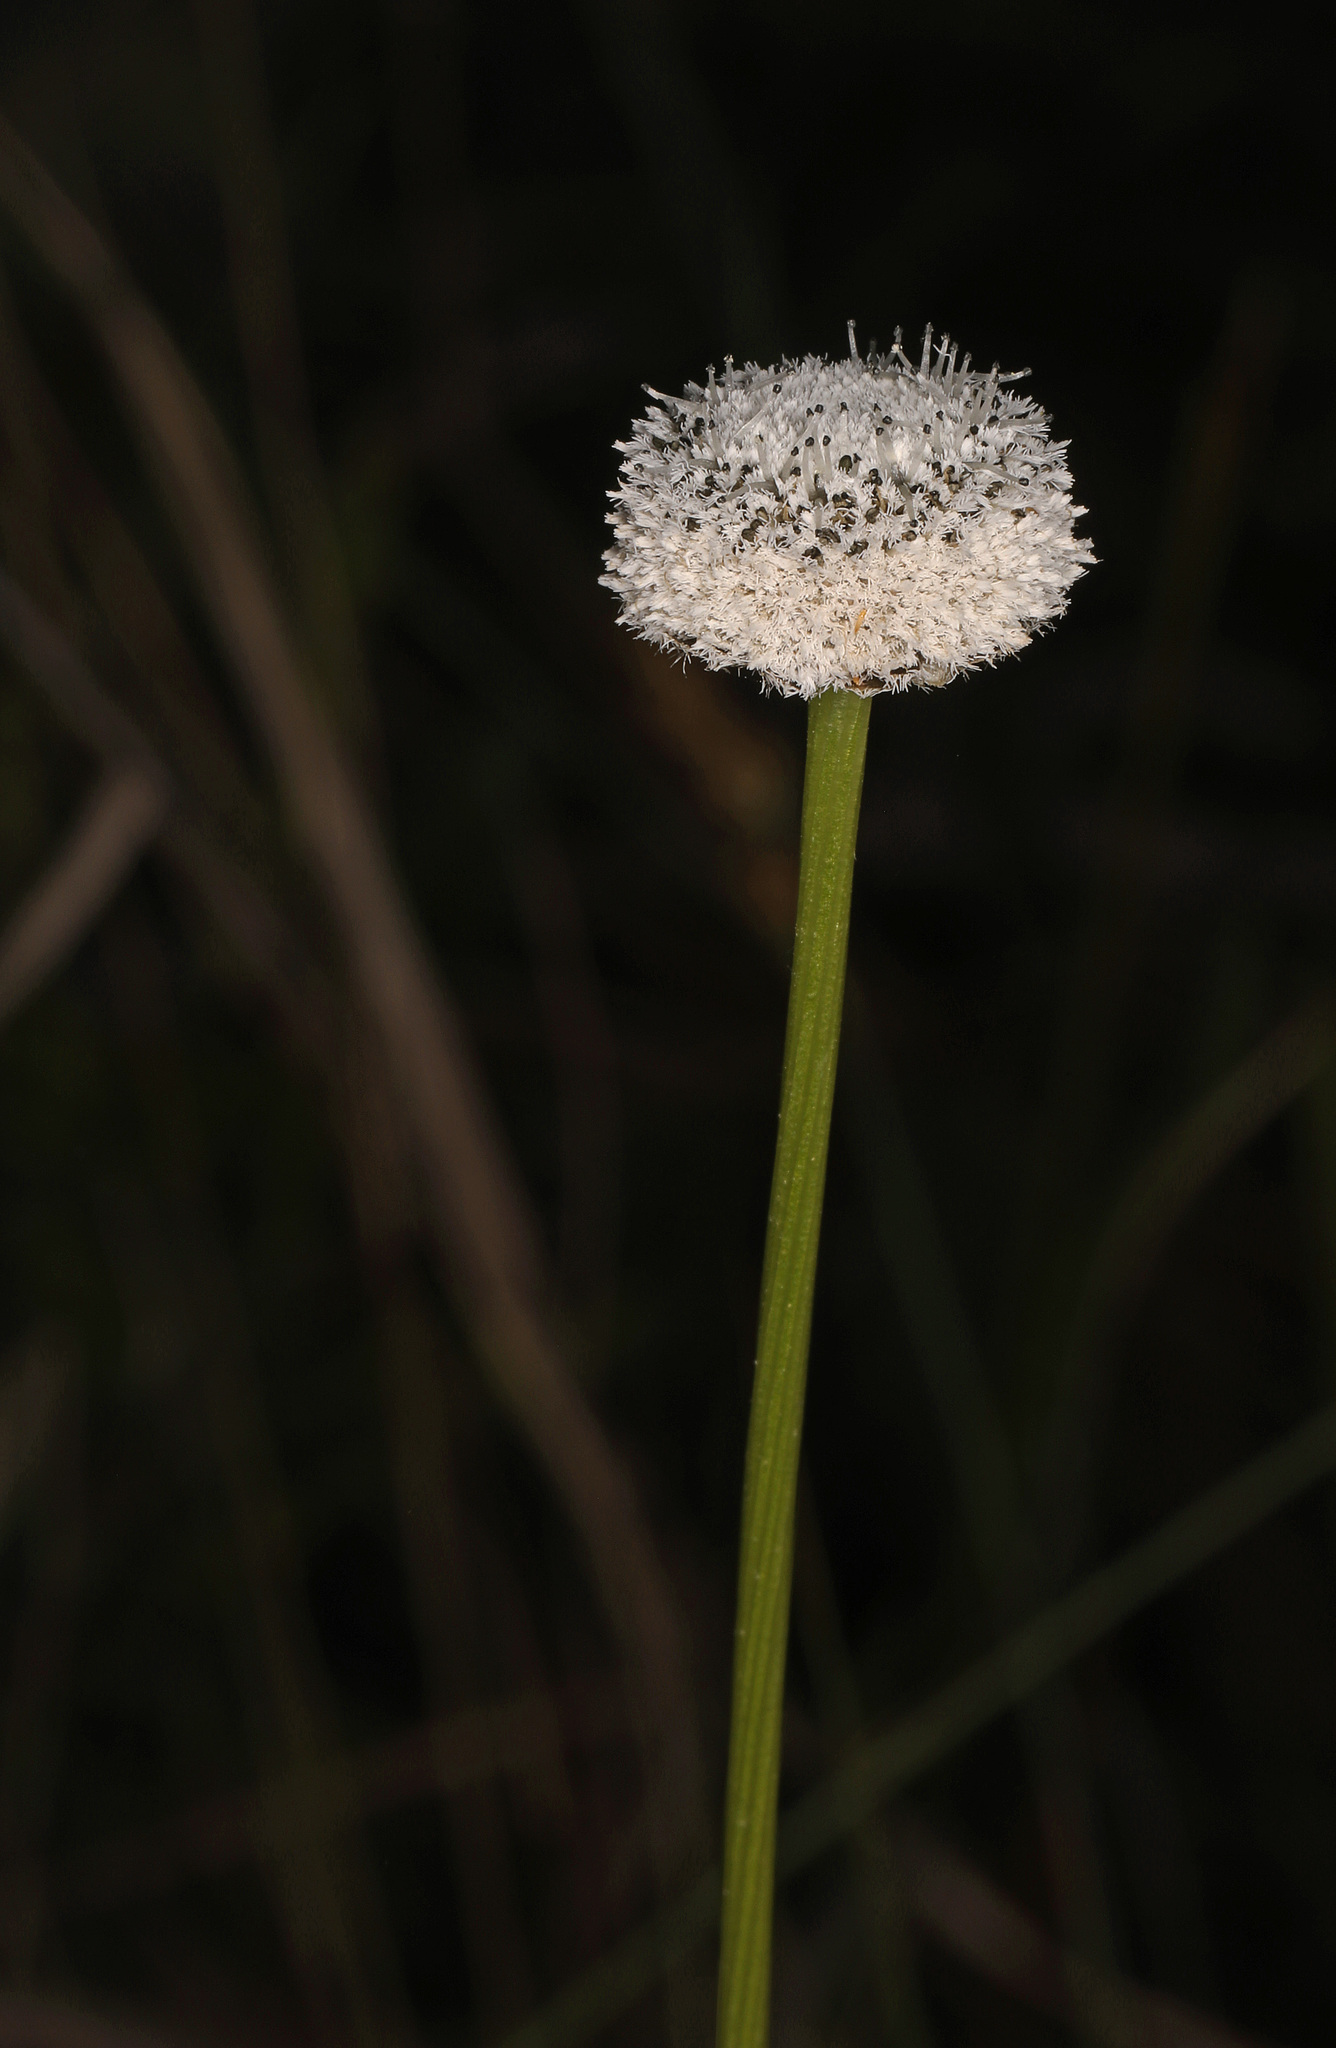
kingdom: Plantae
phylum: Tracheophyta
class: Liliopsida
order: Poales
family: Eriocaulaceae
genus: Eriocaulon
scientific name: Eriocaulon compressum
